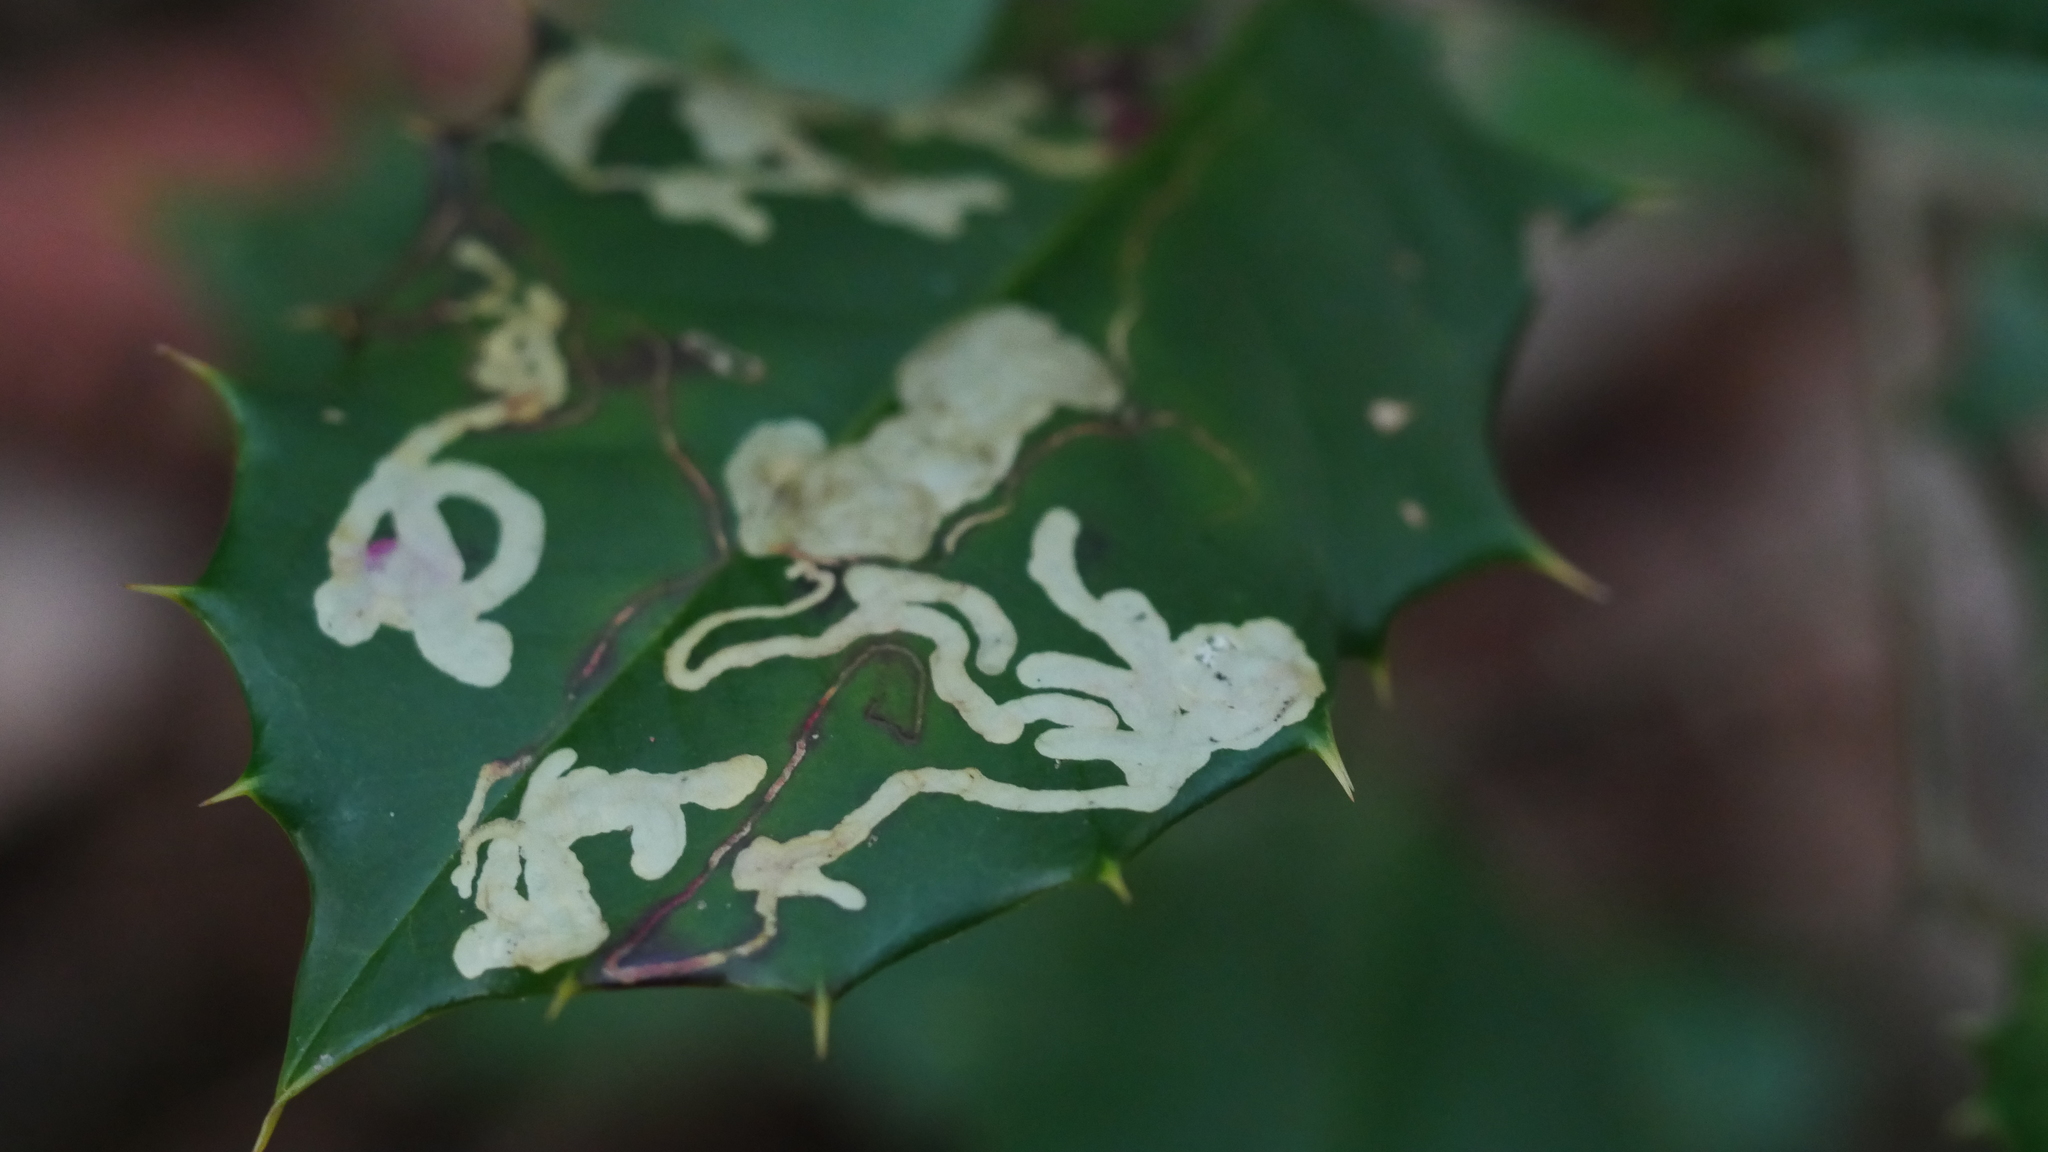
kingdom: Animalia
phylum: Arthropoda
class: Insecta
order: Diptera
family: Agromyzidae
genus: Phytomyza
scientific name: Phytomyza
